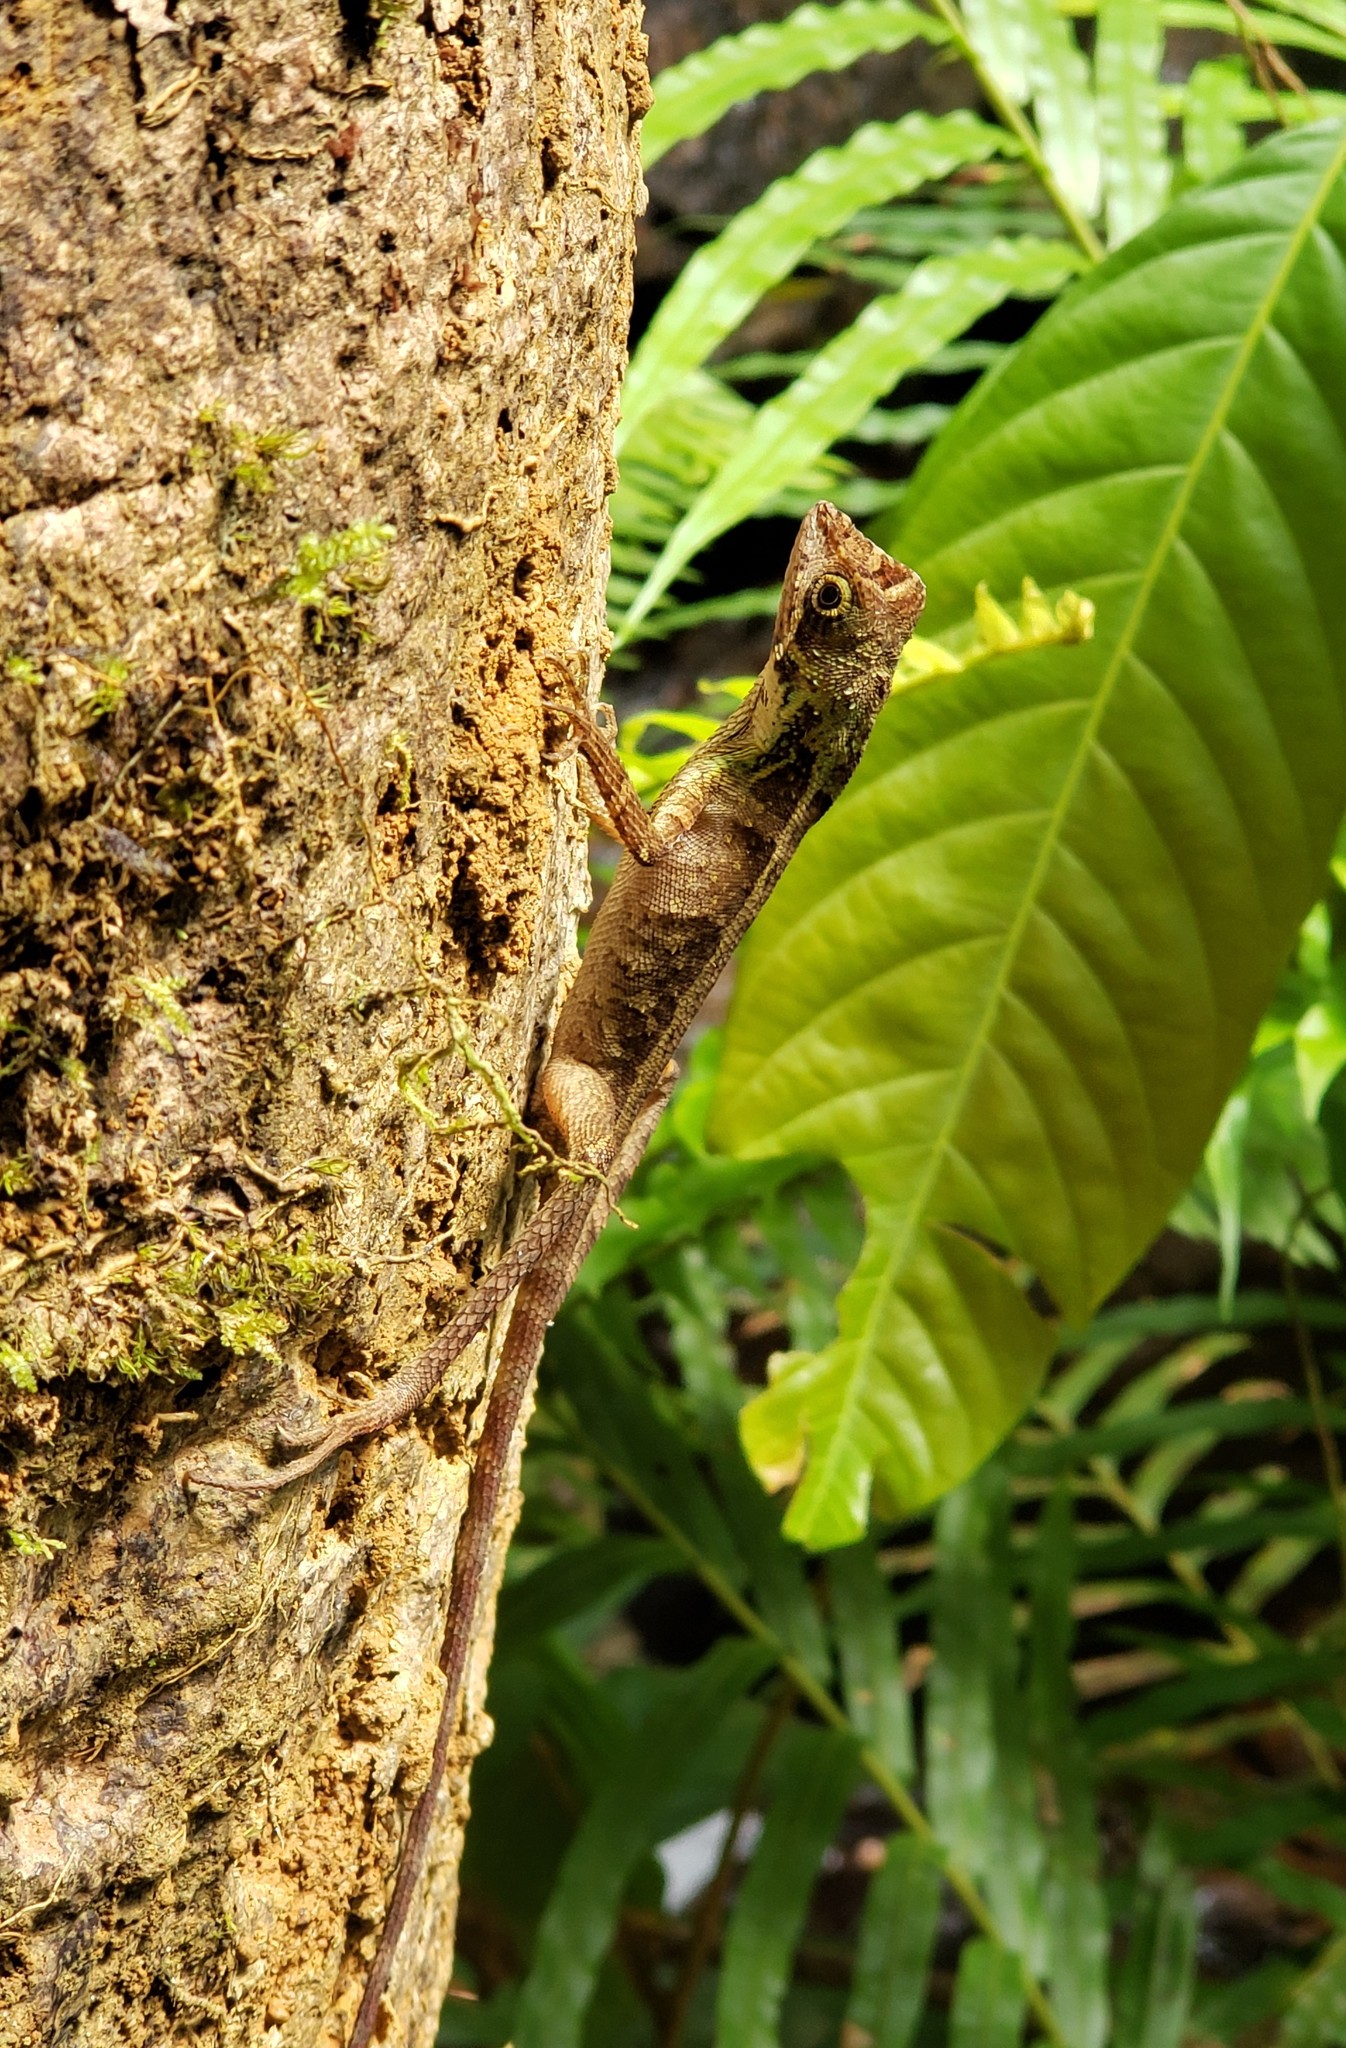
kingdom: Animalia
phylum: Chordata
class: Squamata
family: Agamidae
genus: Otocryptis
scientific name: Otocryptis wiegmanni
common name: Wiegmann's agama
